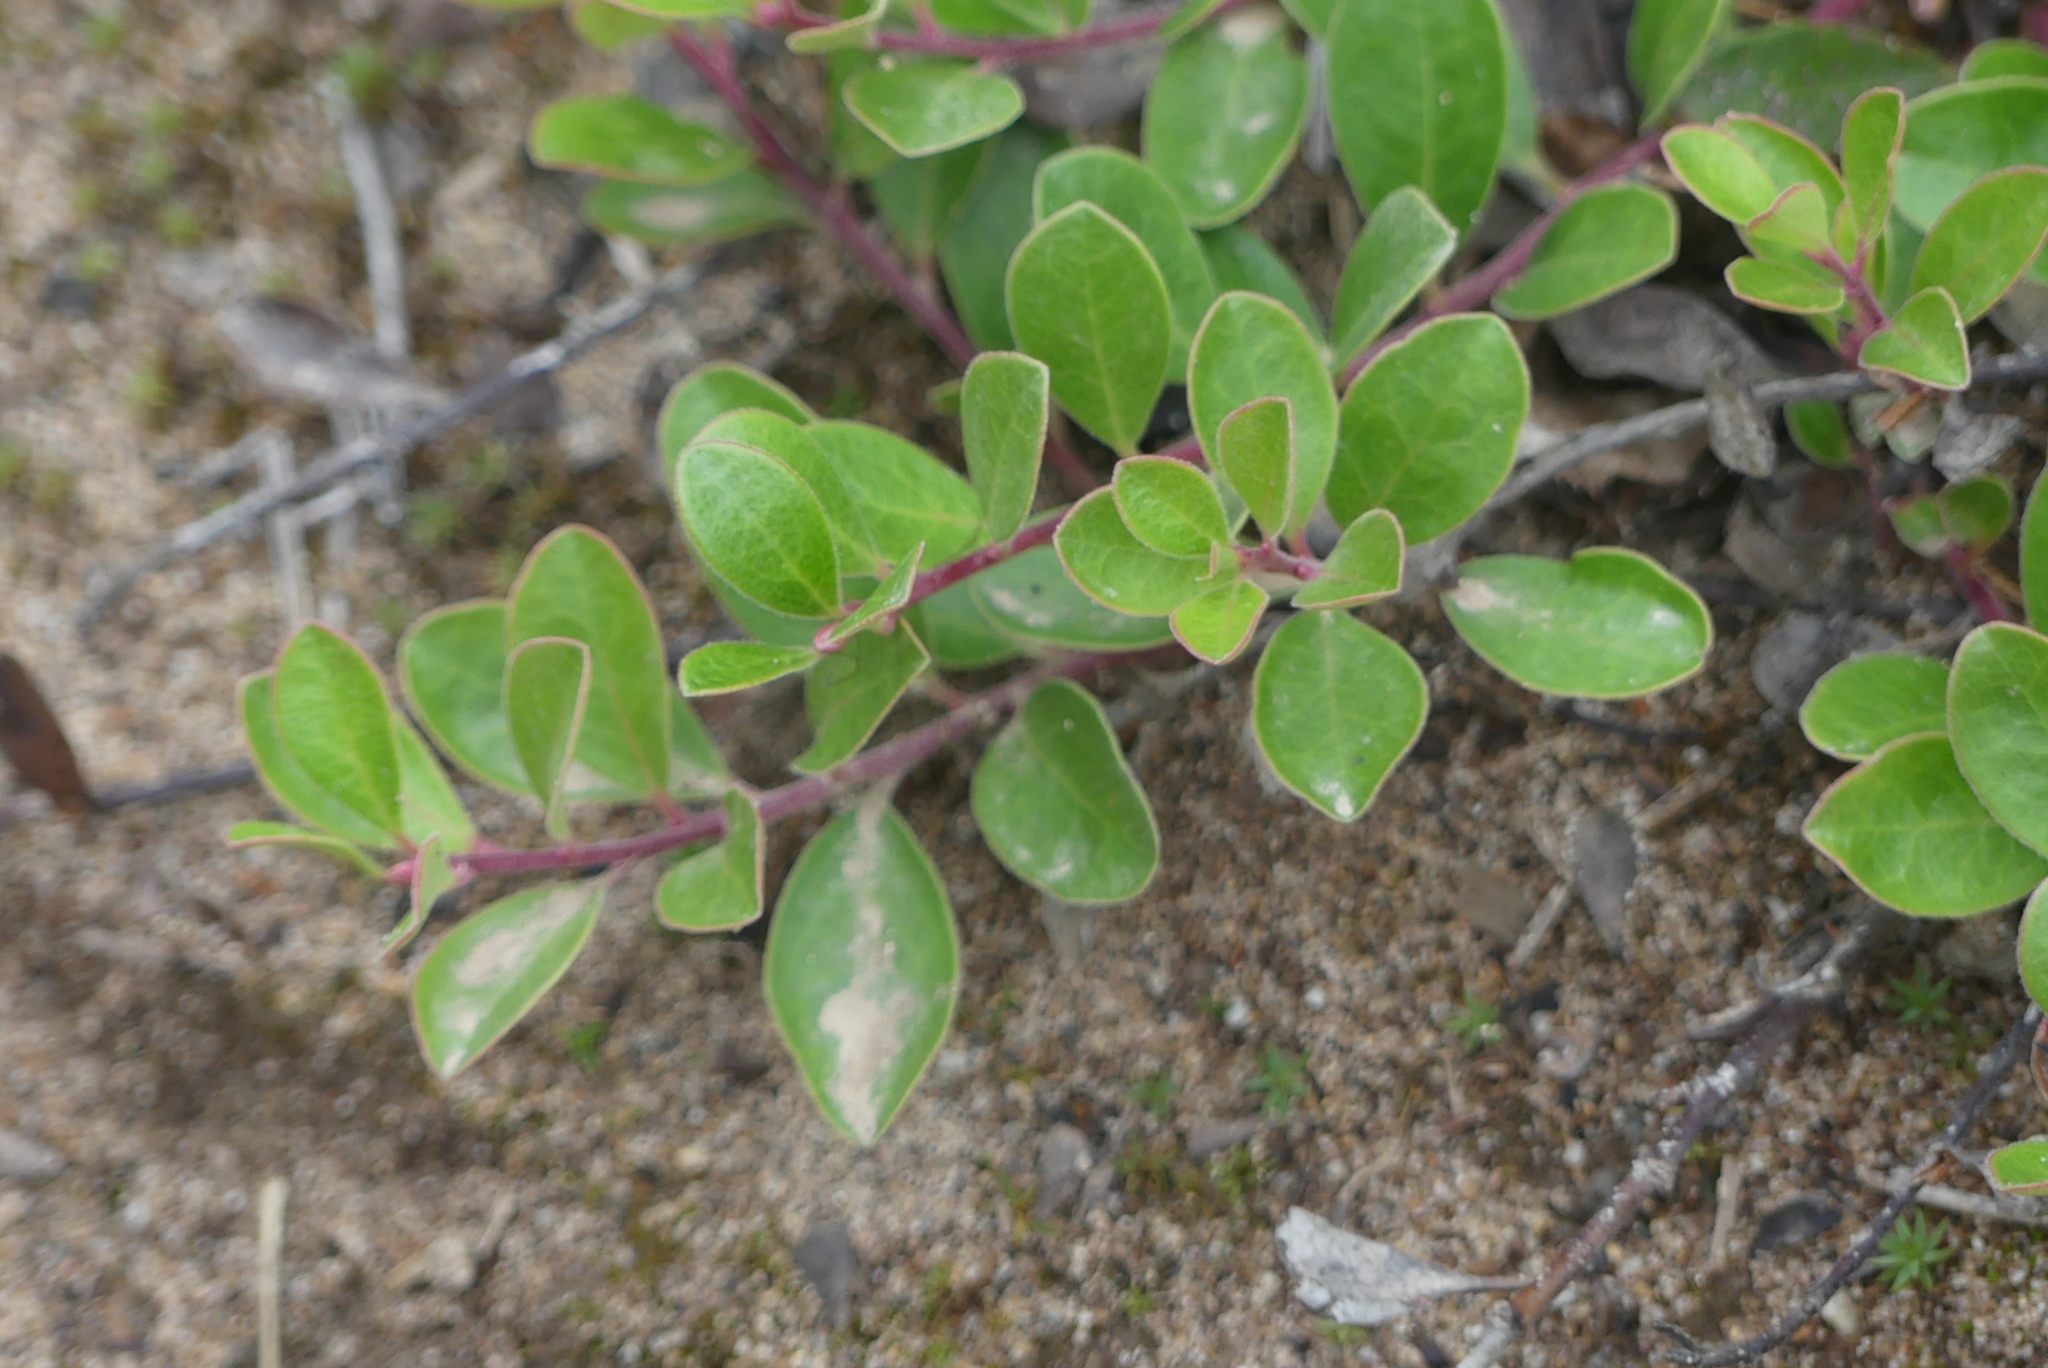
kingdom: Plantae
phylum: Tracheophyta
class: Magnoliopsida
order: Ericales
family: Ericaceae
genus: Arctostaphylos
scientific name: Arctostaphylos uva-ursi
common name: Bearberry
